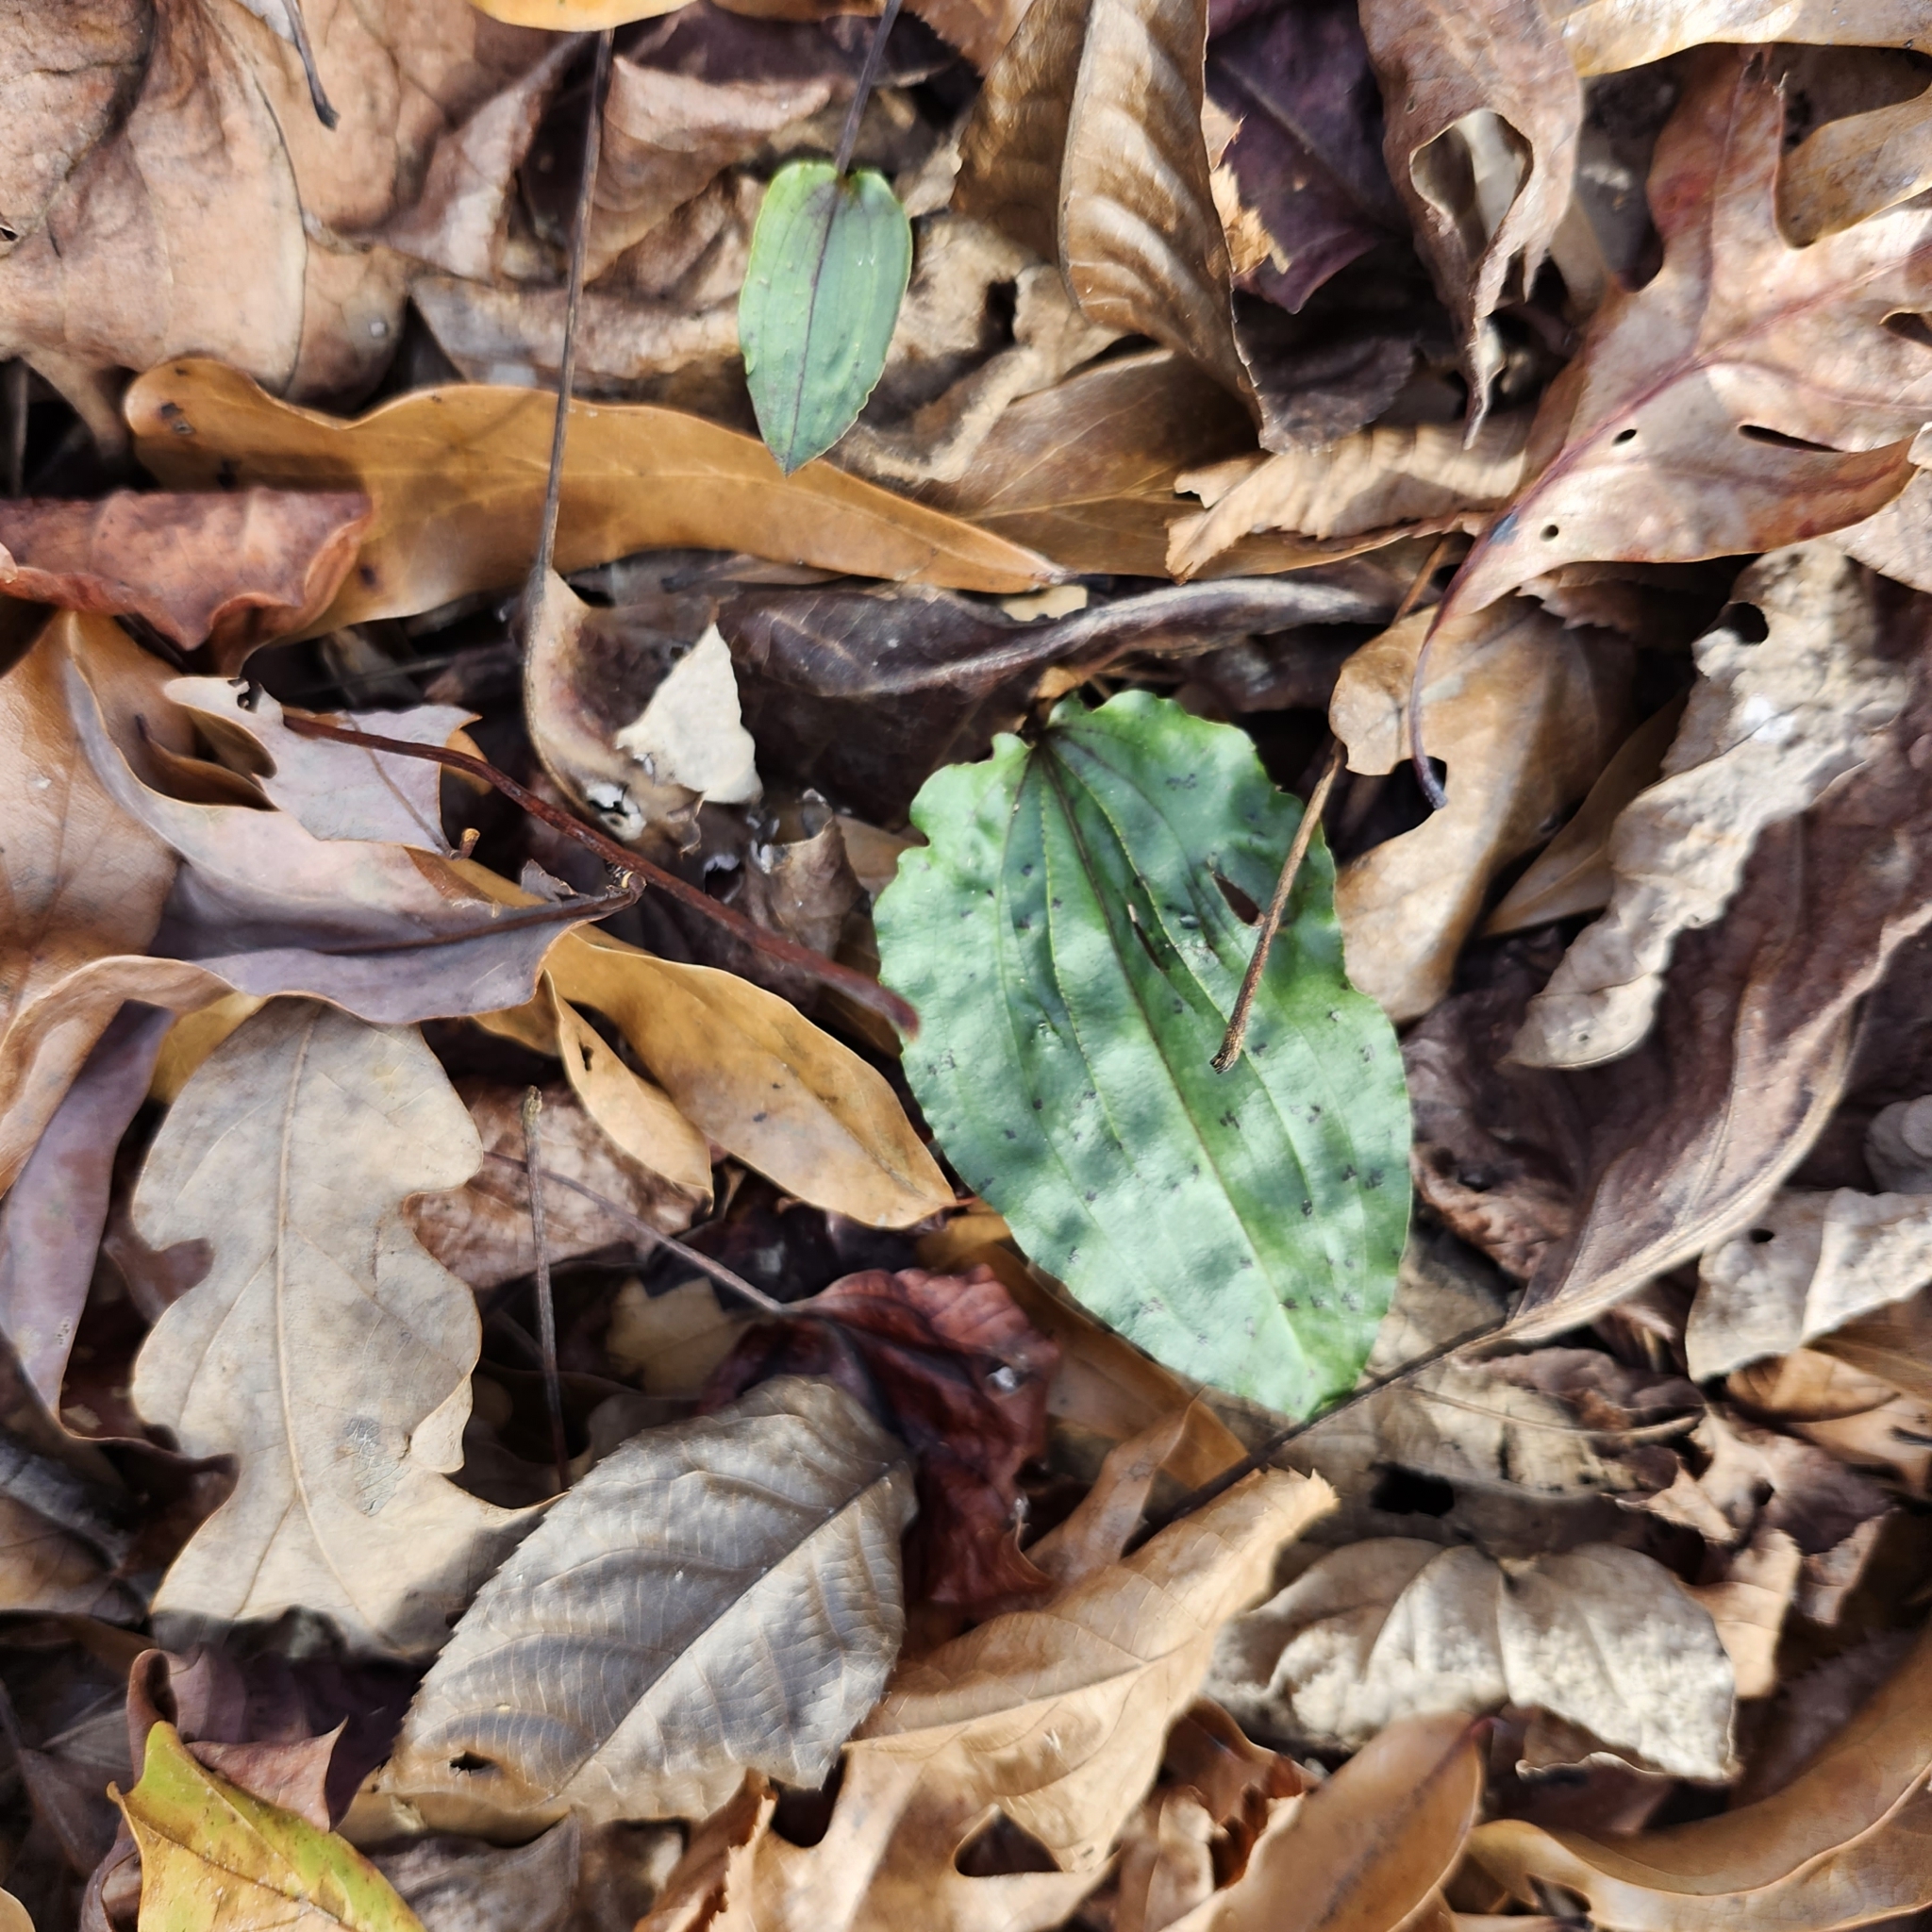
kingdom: Plantae
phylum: Tracheophyta
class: Liliopsida
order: Asparagales
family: Orchidaceae
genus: Tipularia
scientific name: Tipularia discolor
